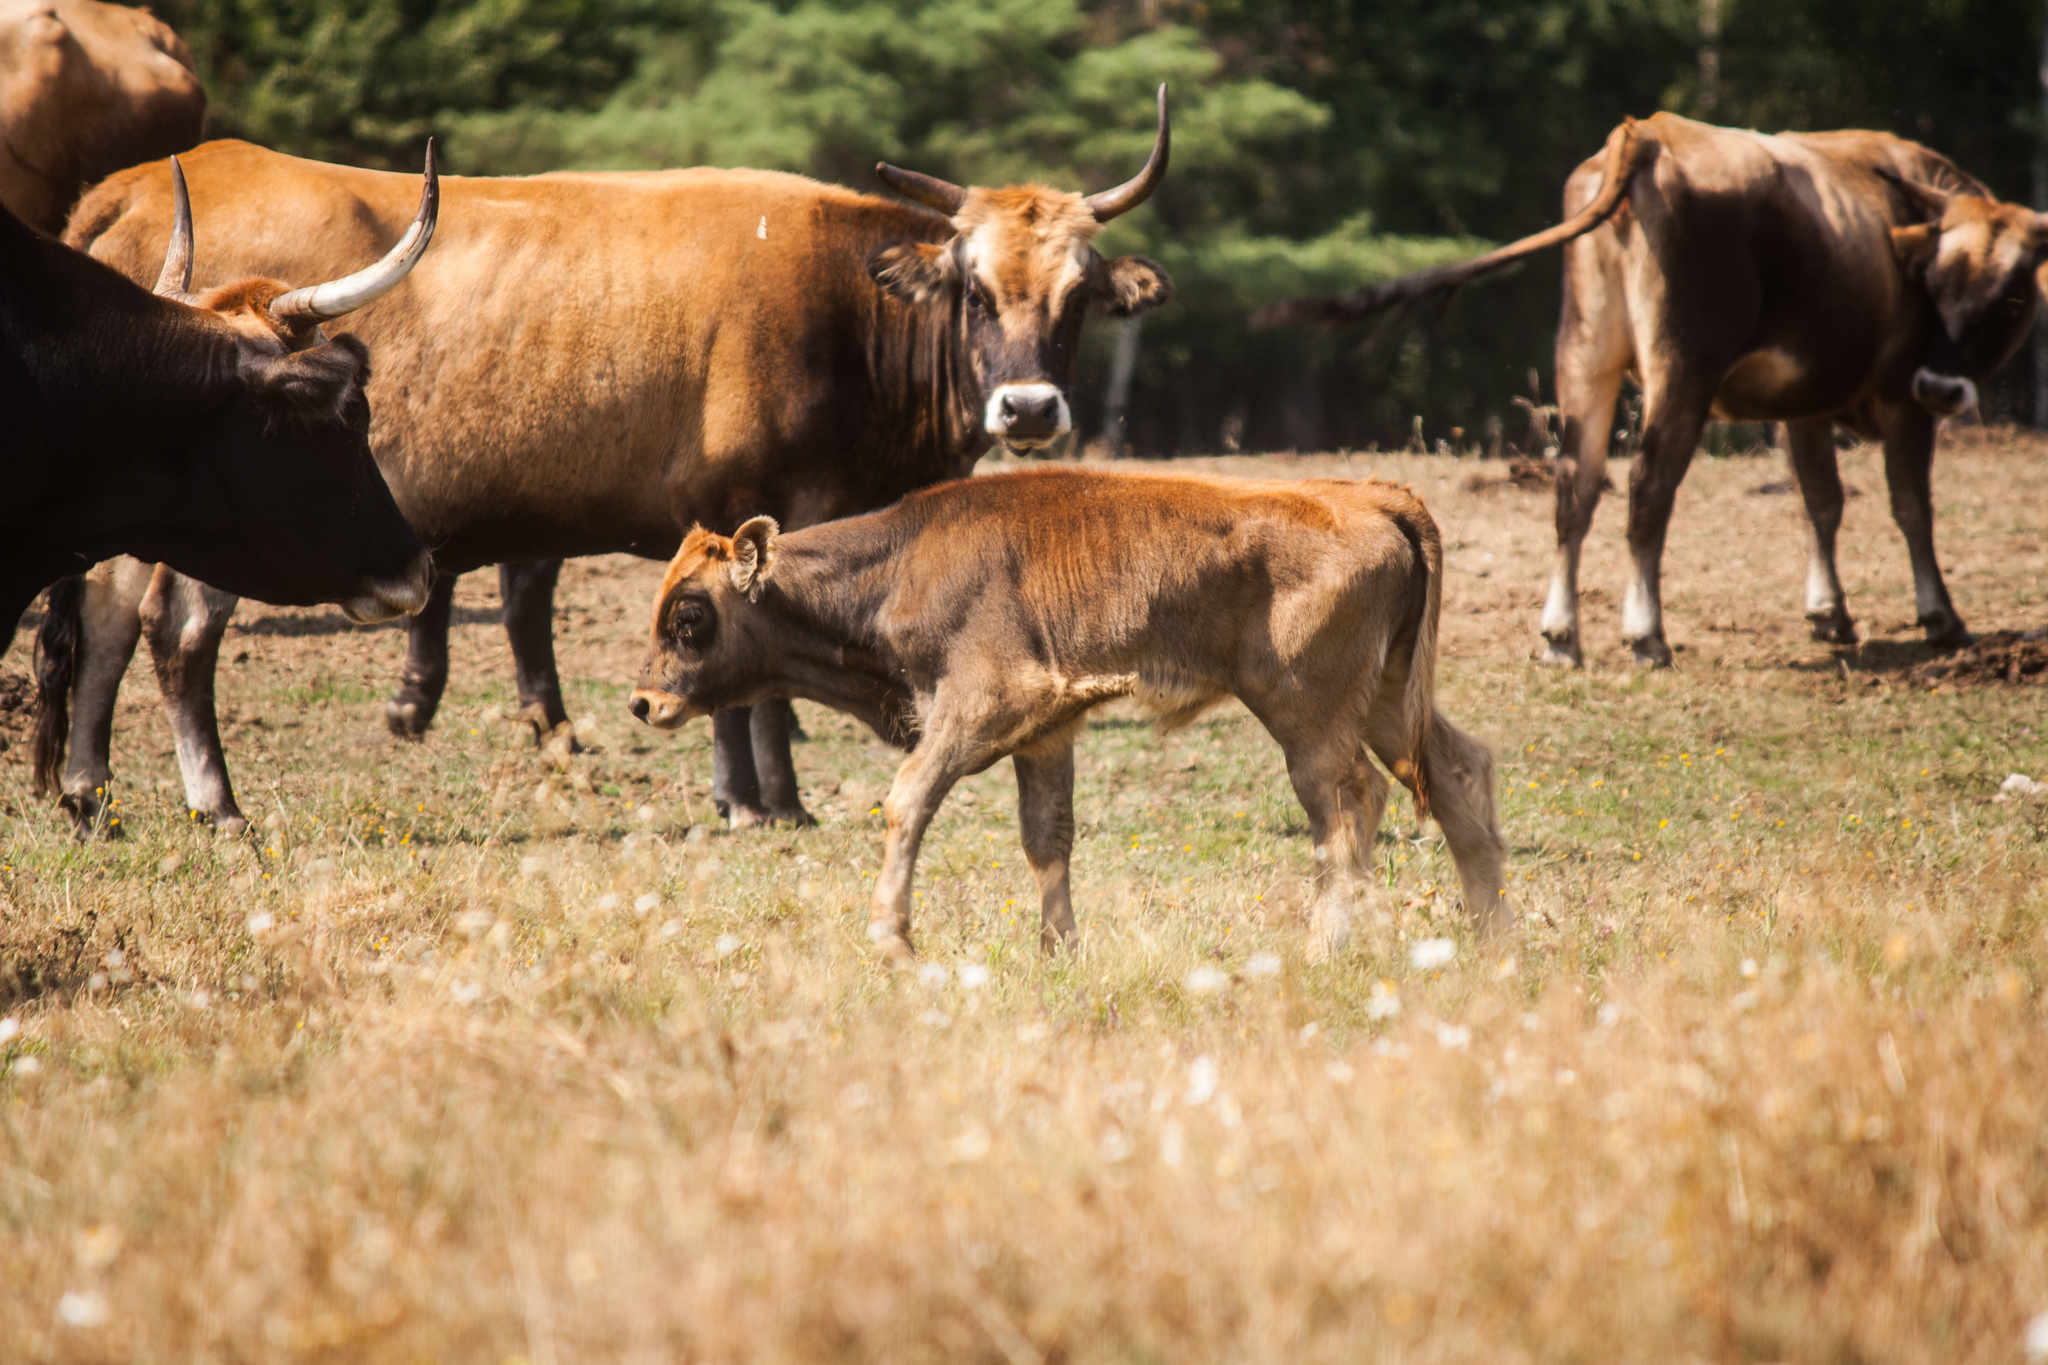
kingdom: Animalia
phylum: Chordata
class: Mammalia
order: Artiodactyla
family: Bovidae
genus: Bos
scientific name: Bos taurus
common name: Domesticated cattle
